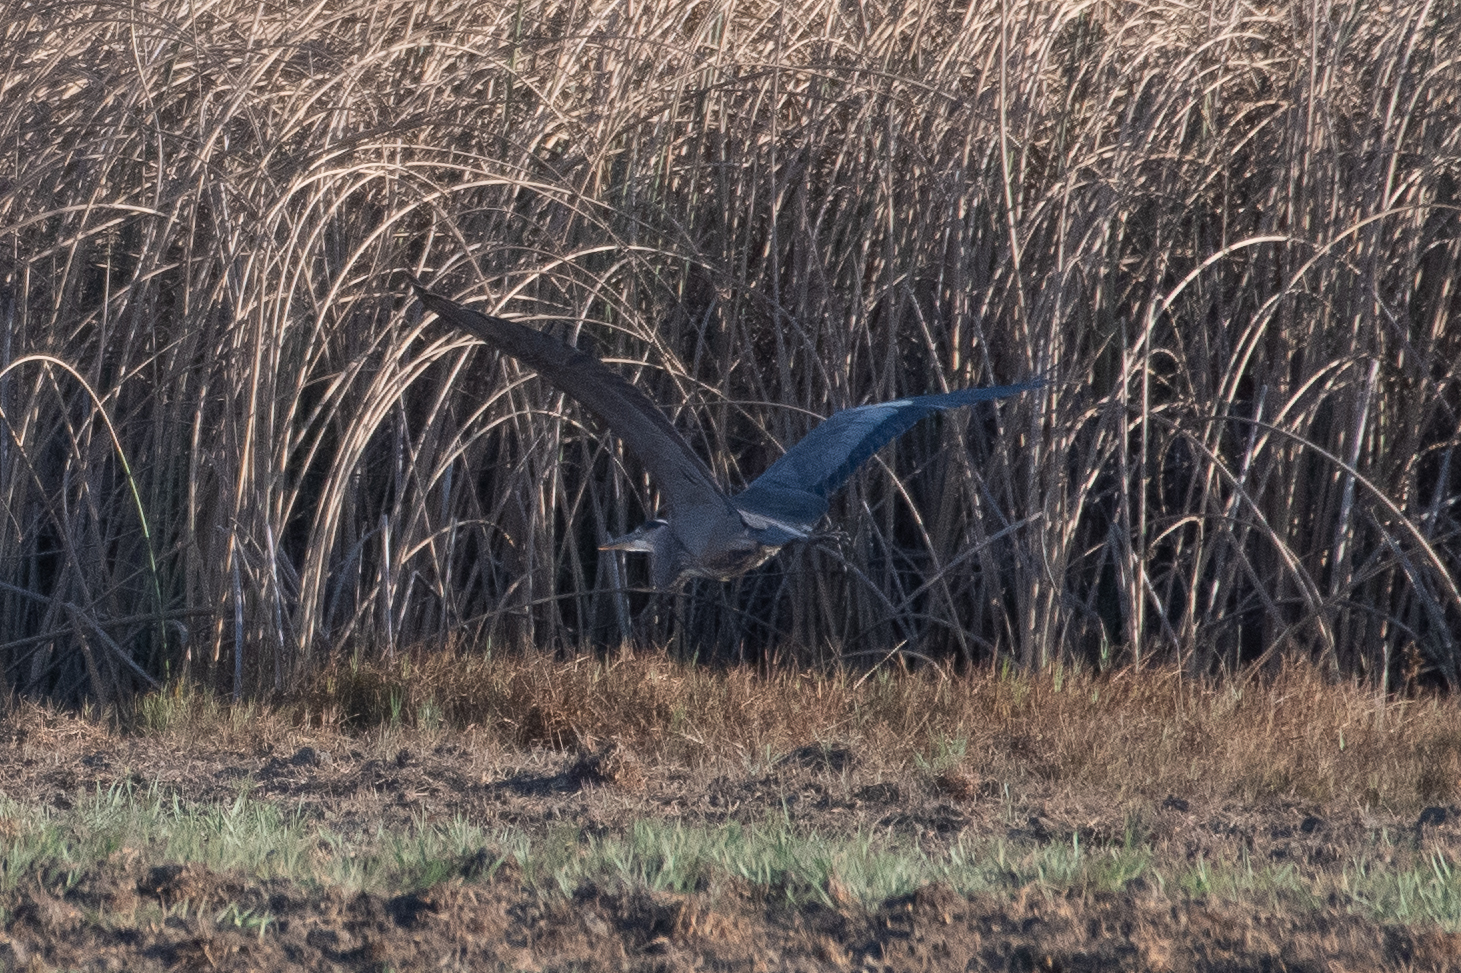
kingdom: Animalia
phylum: Chordata
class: Aves
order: Pelecaniformes
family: Ardeidae
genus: Ardea
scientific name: Ardea herodias
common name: Great blue heron
